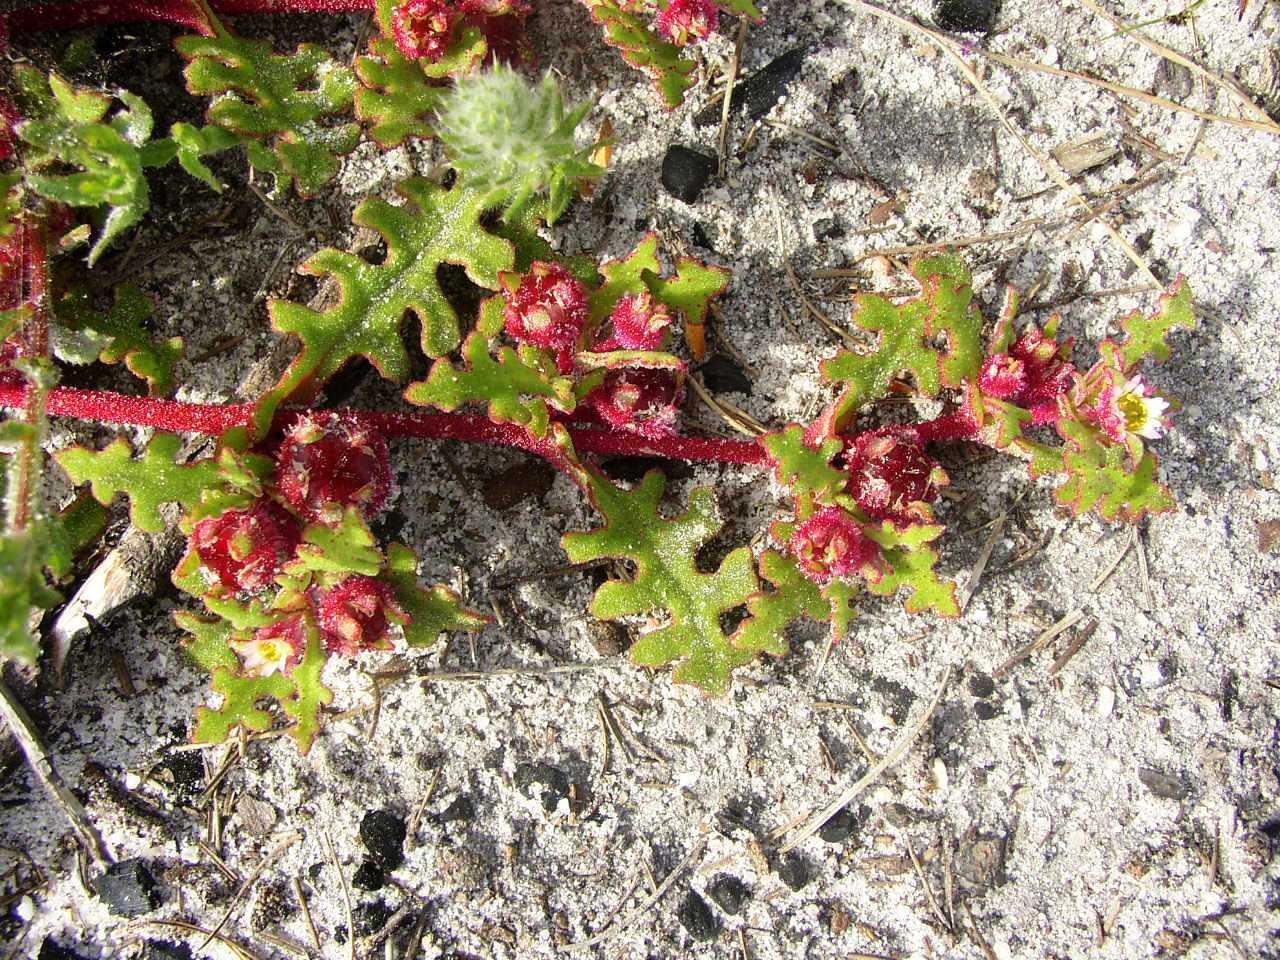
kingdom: Plantae
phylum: Tracheophyta
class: Magnoliopsida
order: Caryophyllales
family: Aizoaceae
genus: Cleretum
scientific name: Cleretum herrei
